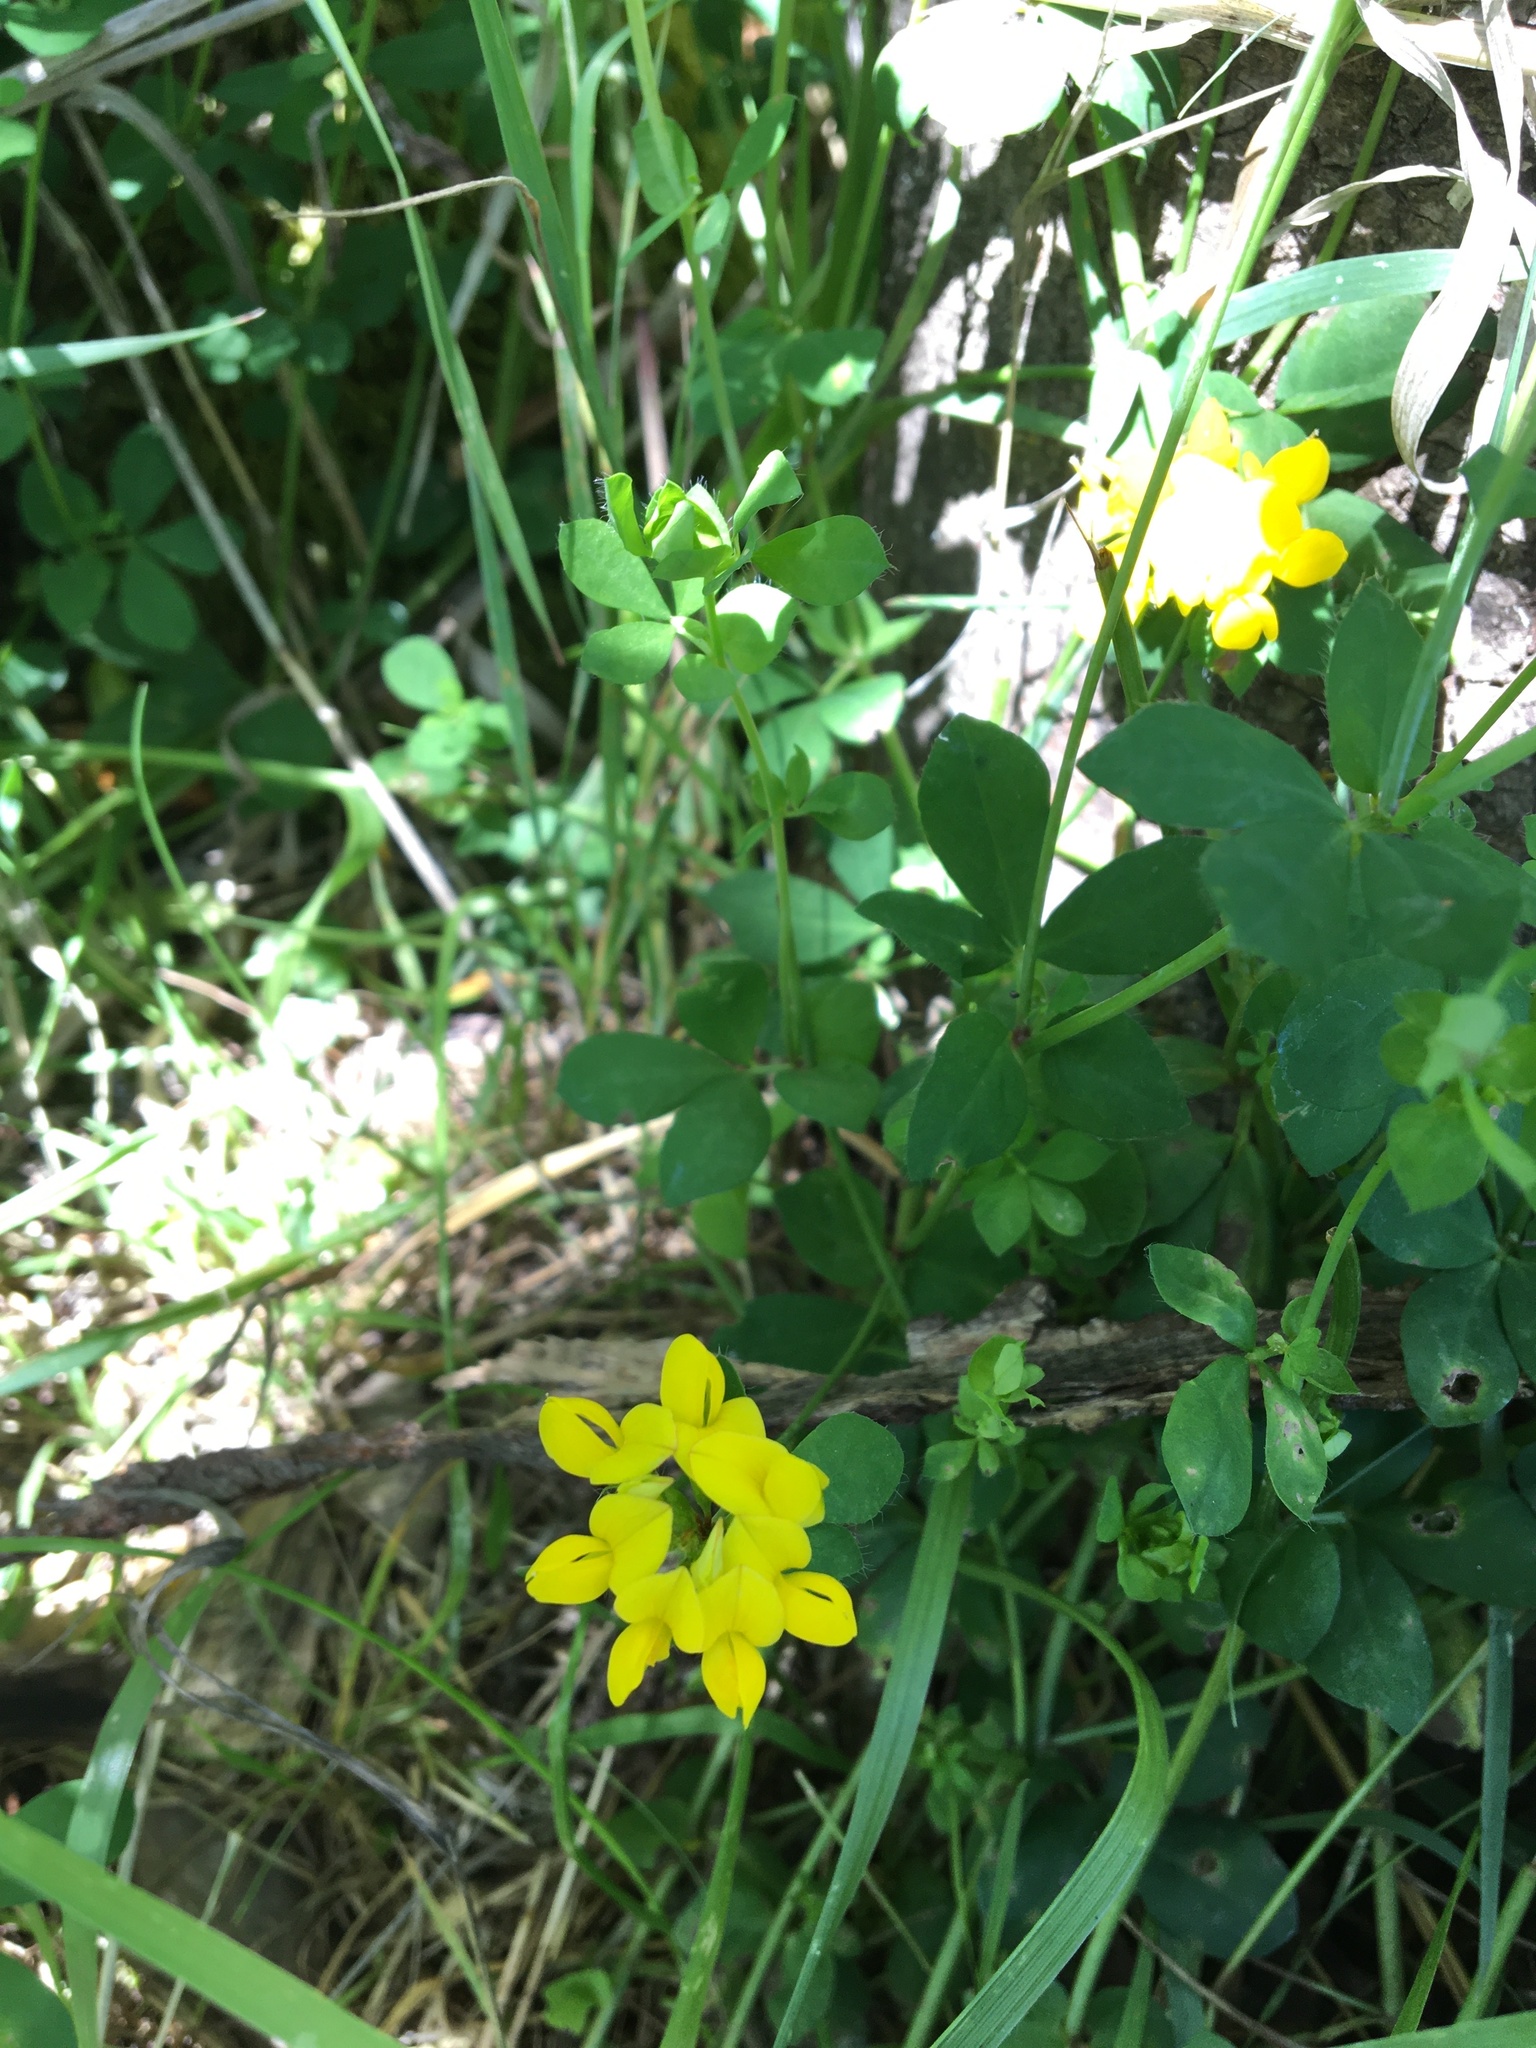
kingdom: Plantae
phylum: Tracheophyta
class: Magnoliopsida
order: Fabales
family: Fabaceae
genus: Lotus
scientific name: Lotus pedunculatus
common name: Greater birdsfoot-trefoil
